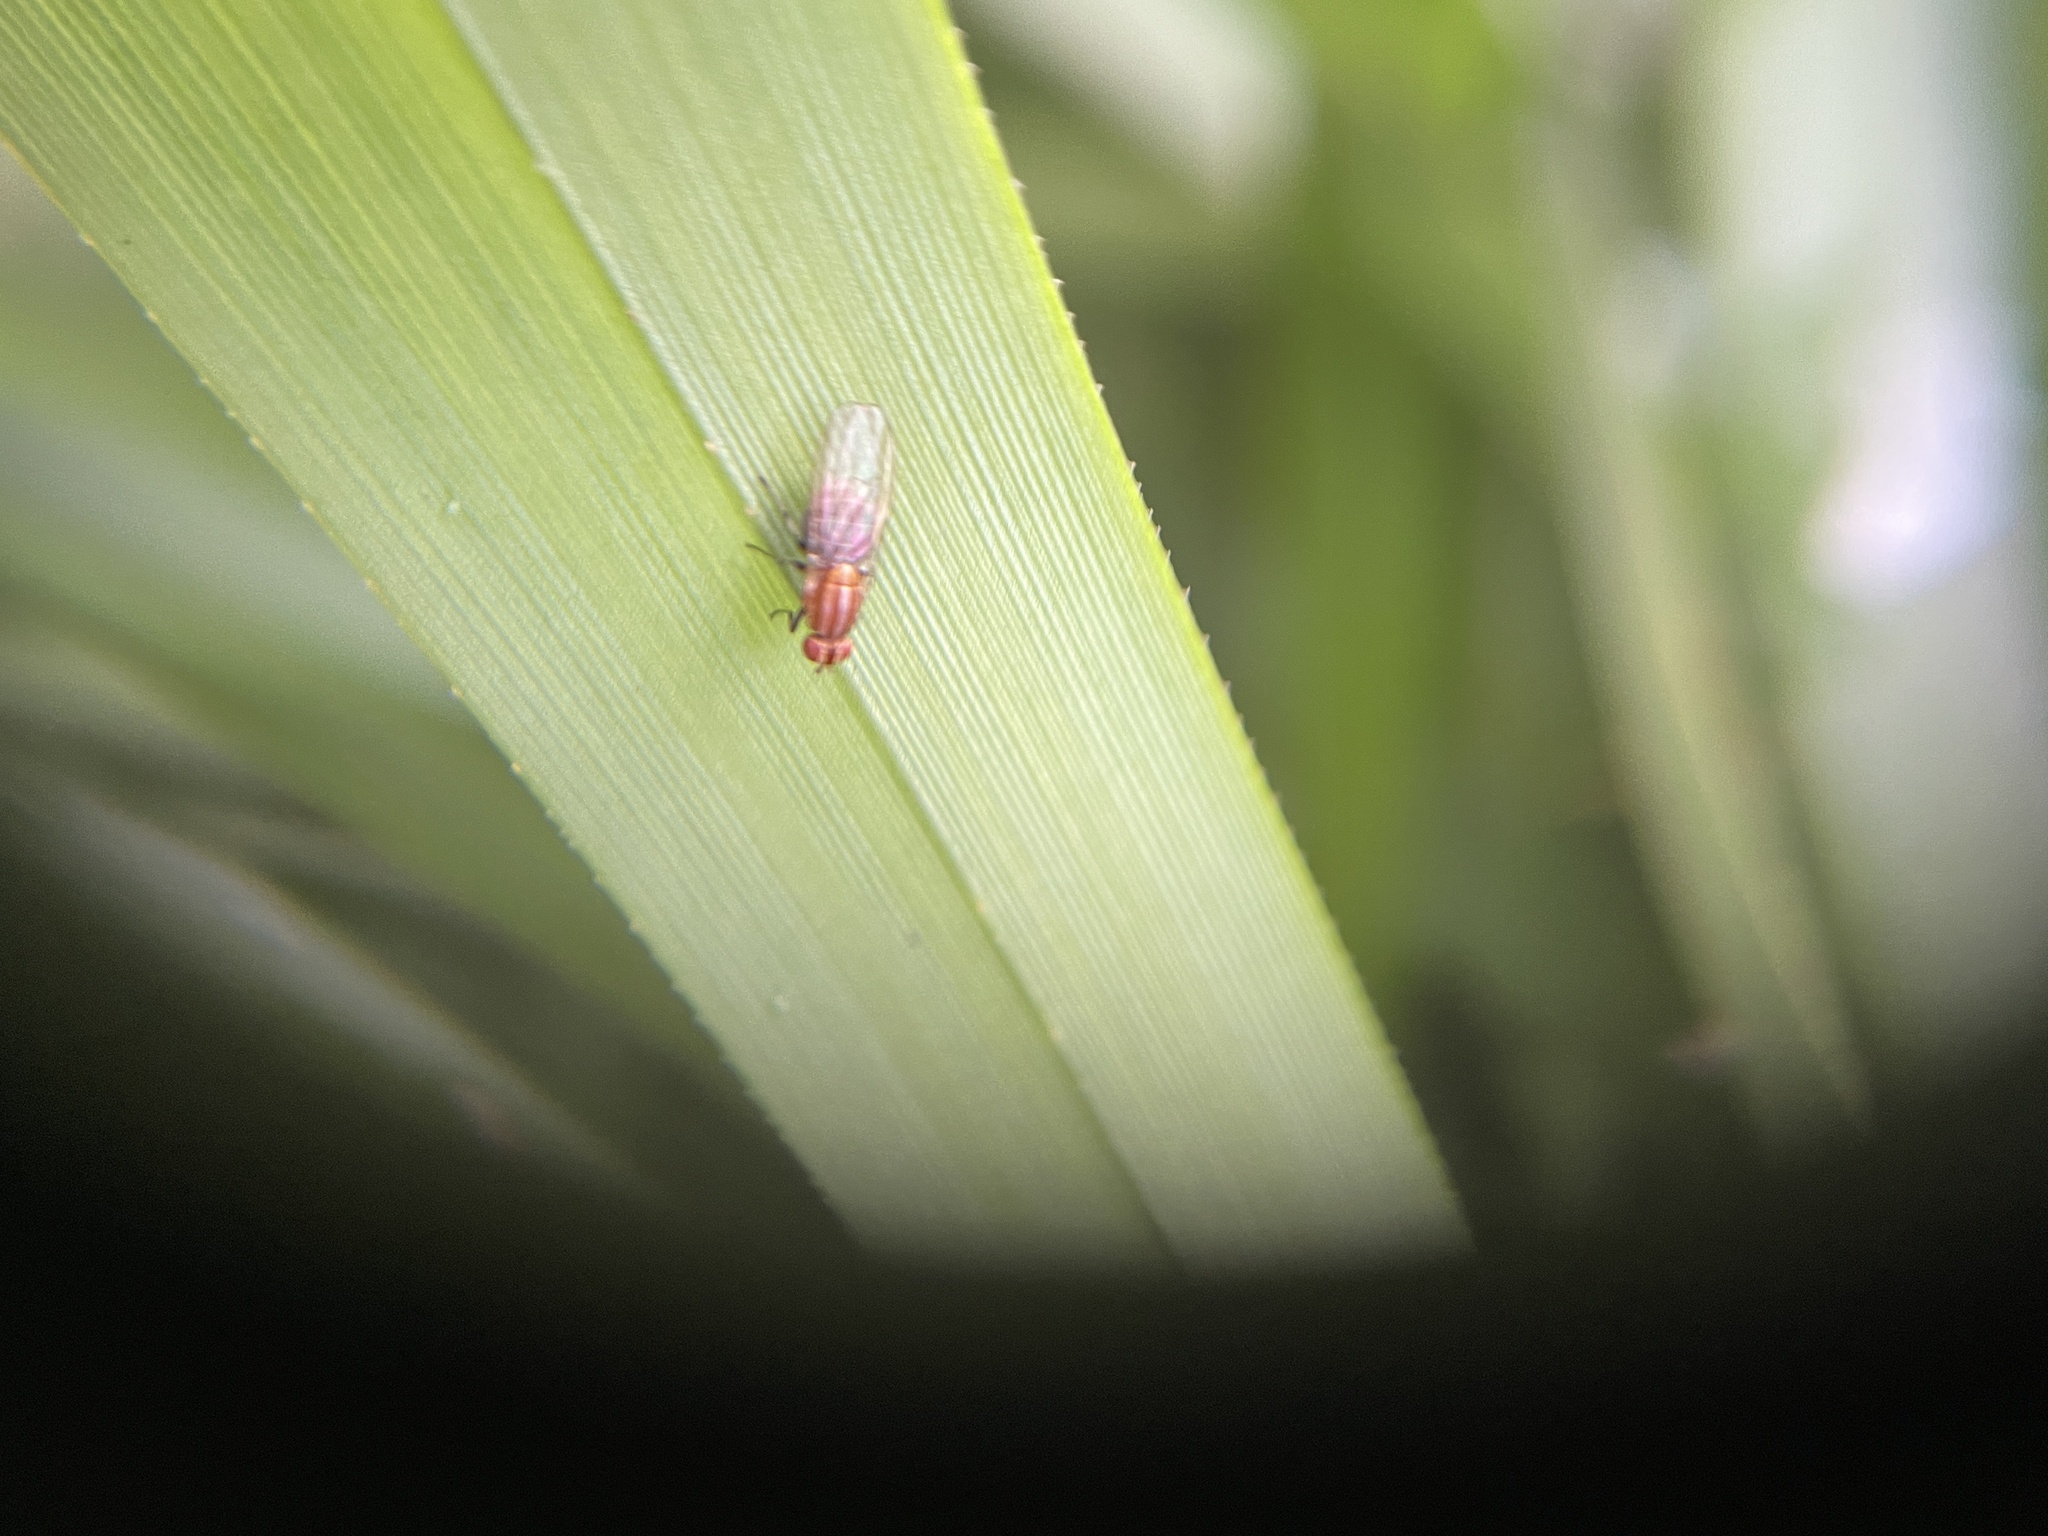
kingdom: Animalia
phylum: Arthropoda
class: Insecta
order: Diptera
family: Lauxaniidae
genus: Sapromyza
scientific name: Sapromyza brunneovittata
